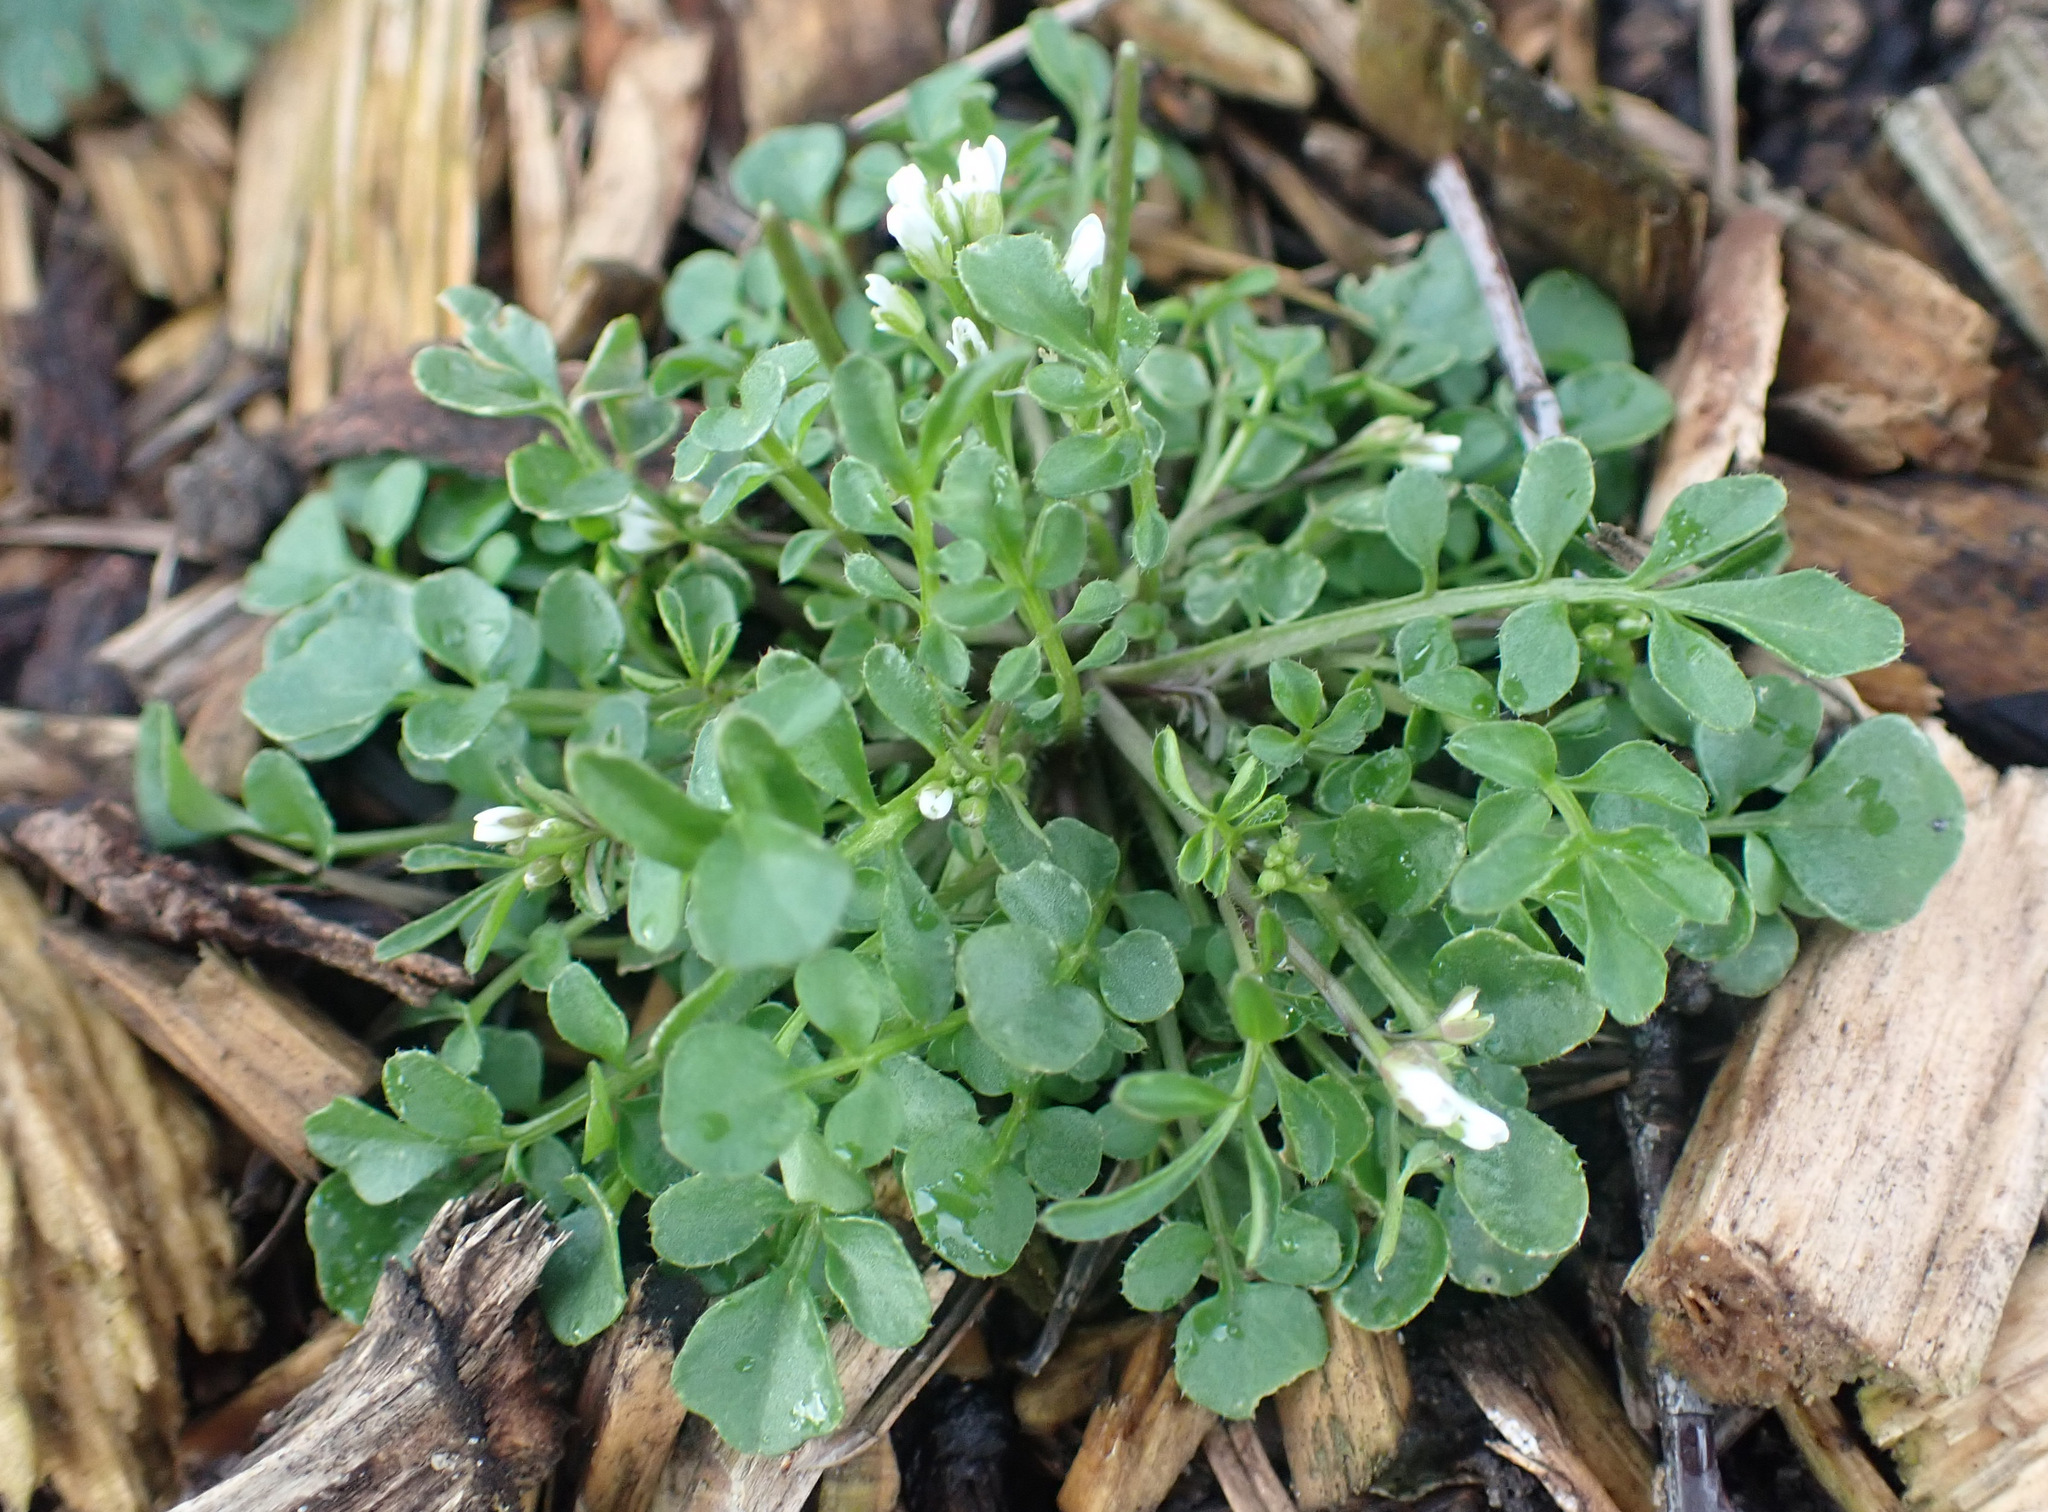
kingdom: Plantae
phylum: Tracheophyta
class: Magnoliopsida
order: Brassicales
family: Brassicaceae
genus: Cardamine
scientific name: Cardamine hirsuta
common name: Hairy bittercress
